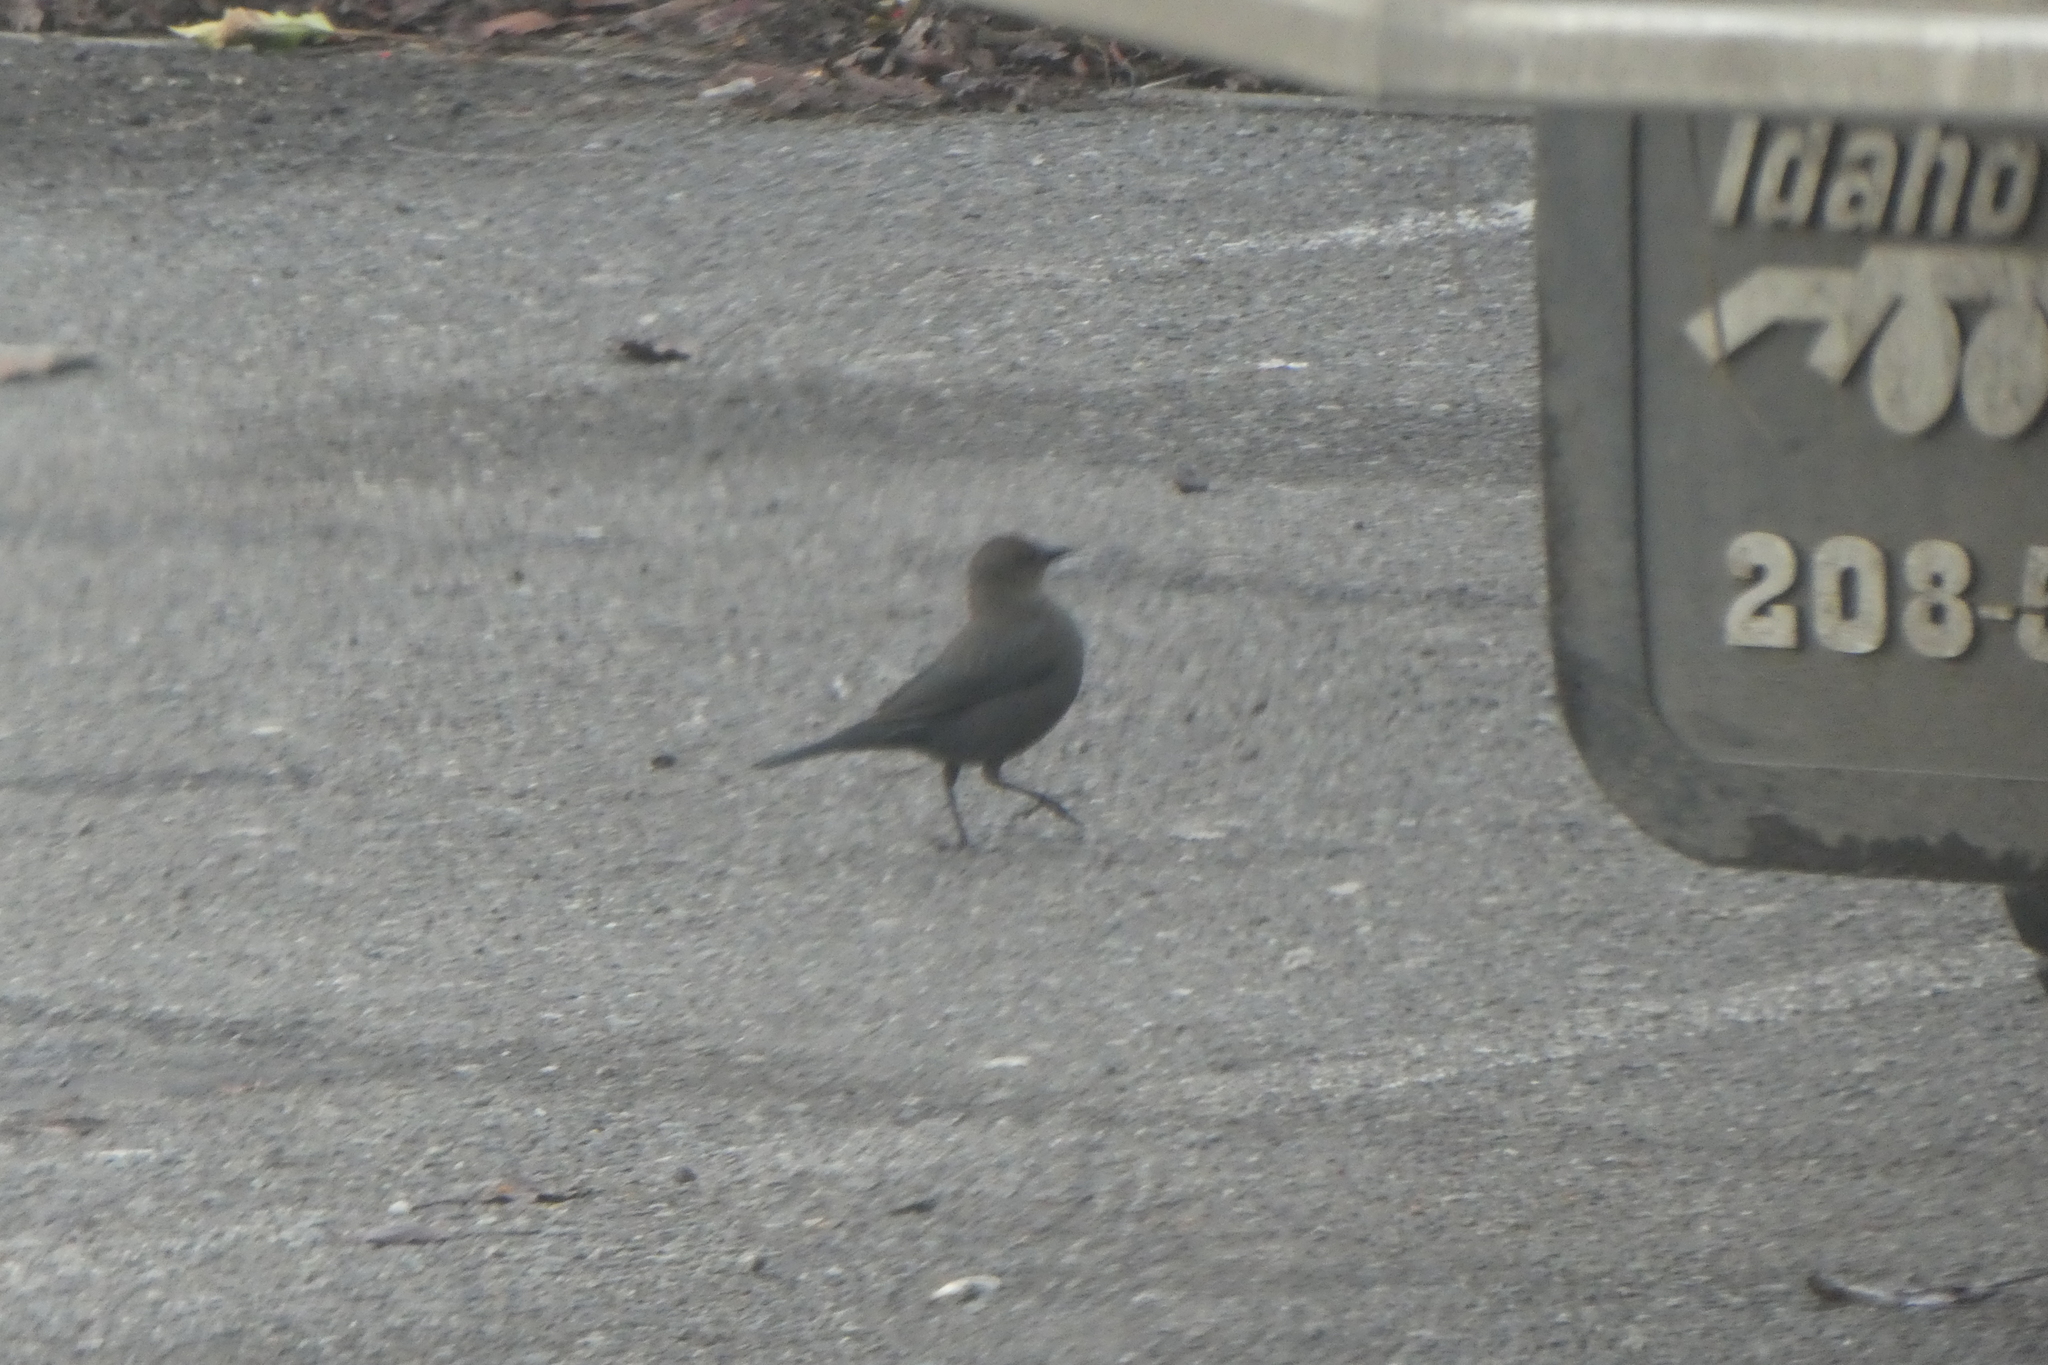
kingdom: Animalia
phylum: Chordata
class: Aves
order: Passeriformes
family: Icteridae
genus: Euphagus
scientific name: Euphagus cyanocephalus
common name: Brewer's blackbird
